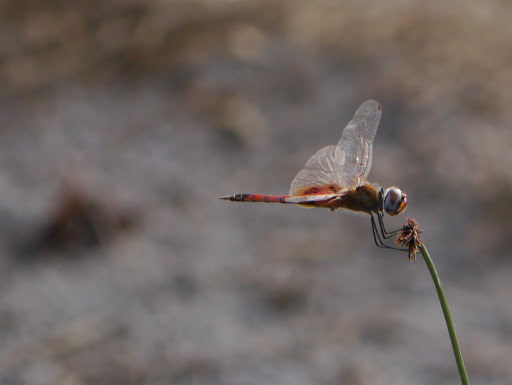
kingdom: Animalia
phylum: Arthropoda
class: Insecta
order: Odonata
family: Libellulidae
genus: Tramea
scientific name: Tramea basilaris
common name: Keyhole glider
